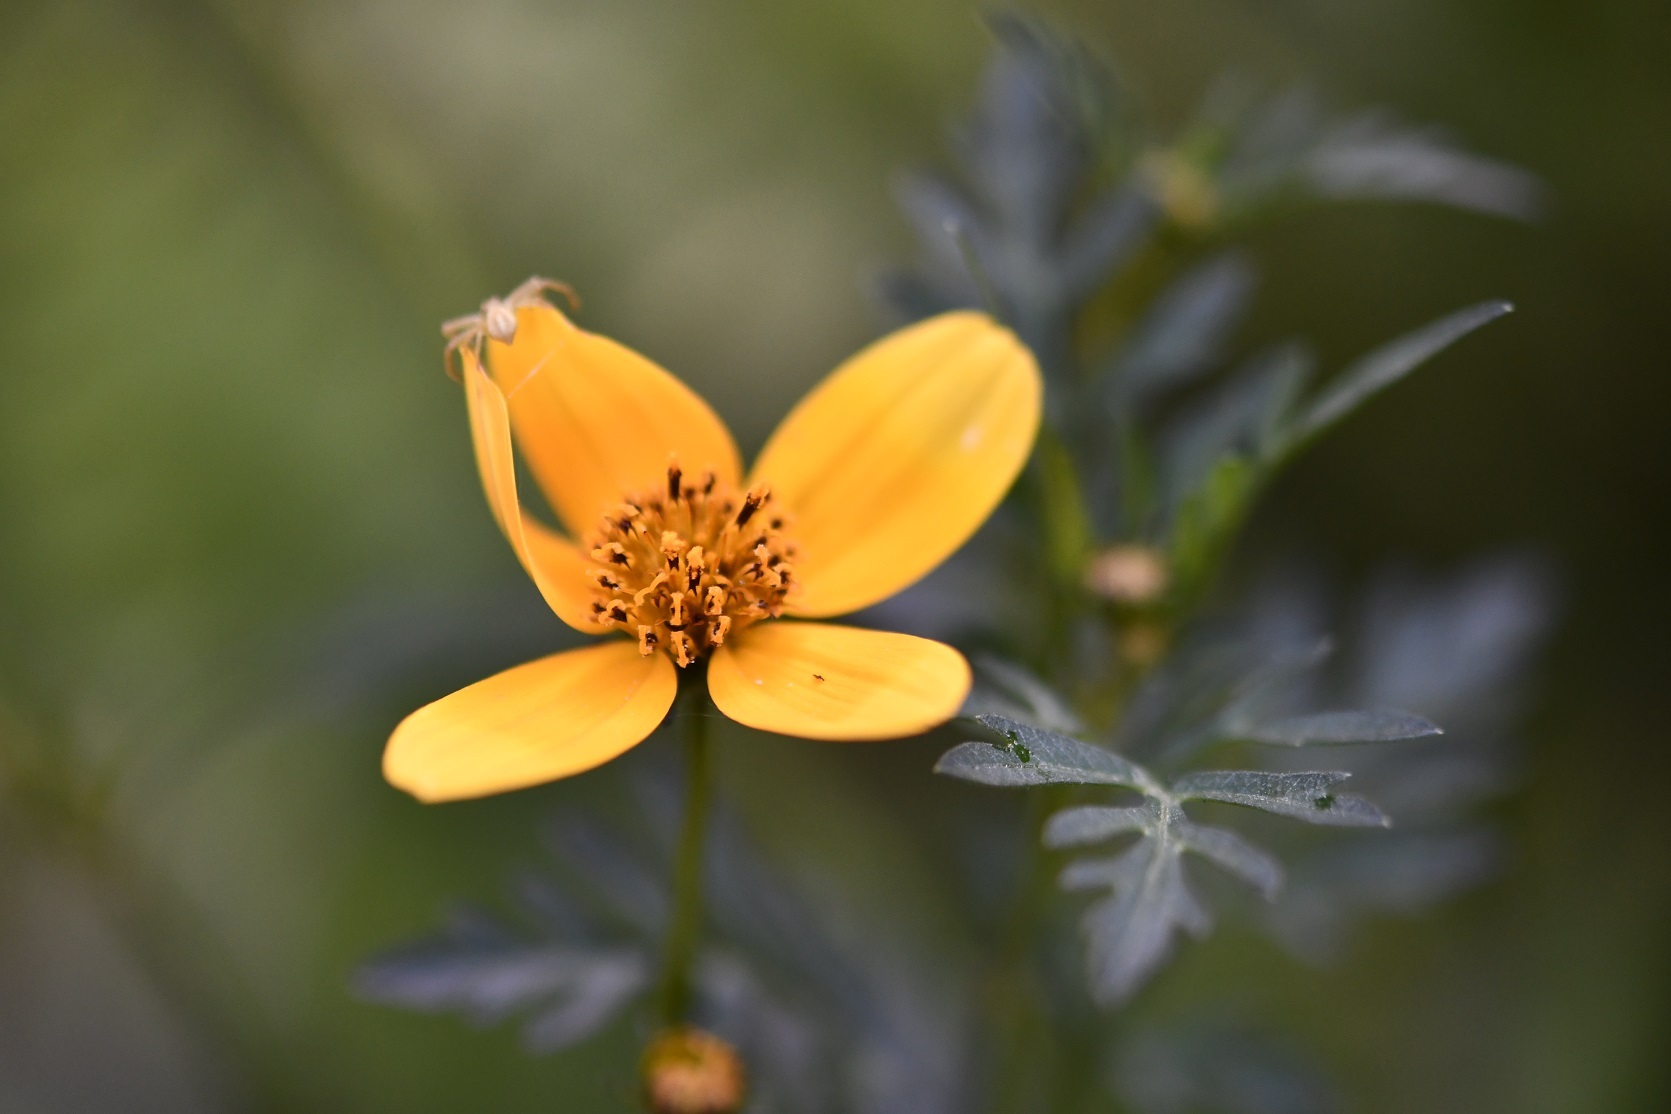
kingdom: Plantae
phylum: Tracheophyta
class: Magnoliopsida
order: Asterales
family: Asteraceae
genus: Bidens
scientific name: Bidens triplinervia
